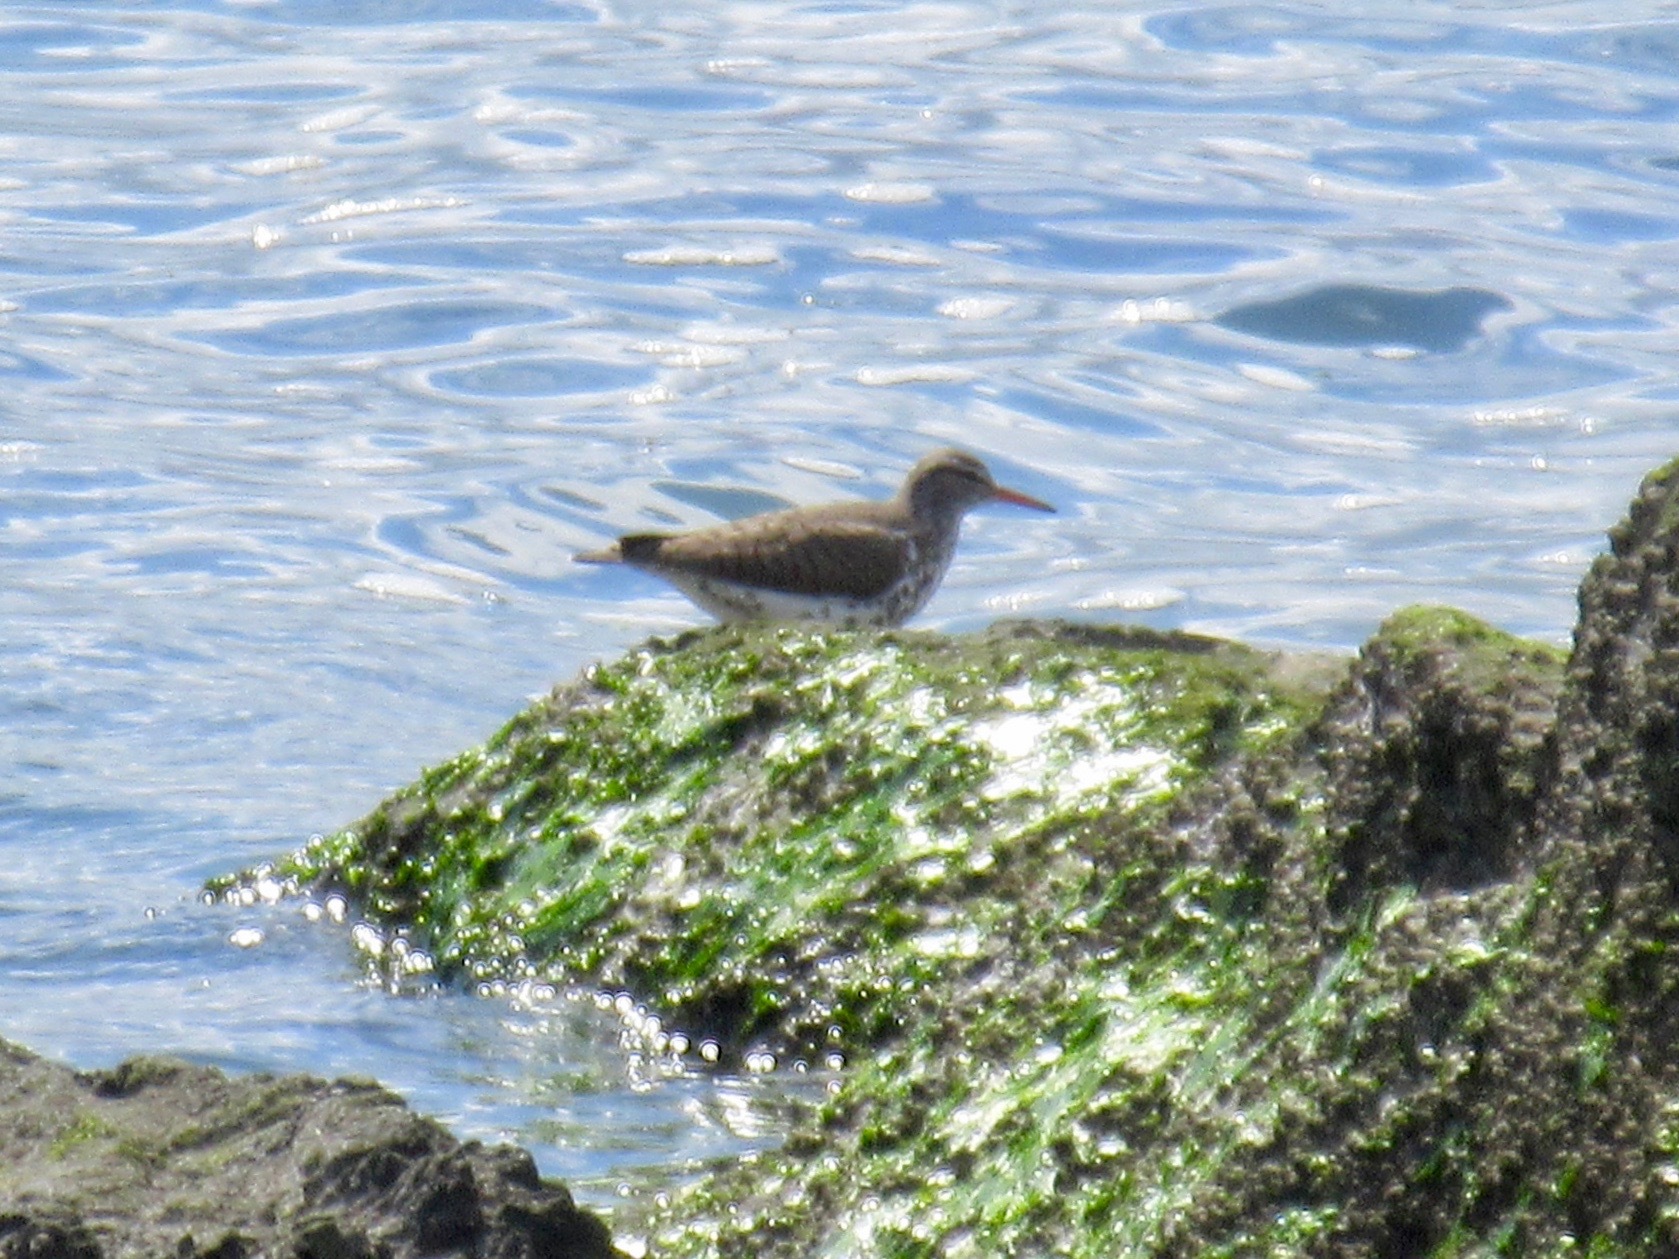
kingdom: Animalia
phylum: Chordata
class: Aves
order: Charadriiformes
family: Scolopacidae
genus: Actitis
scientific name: Actitis macularius
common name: Spotted sandpiper
